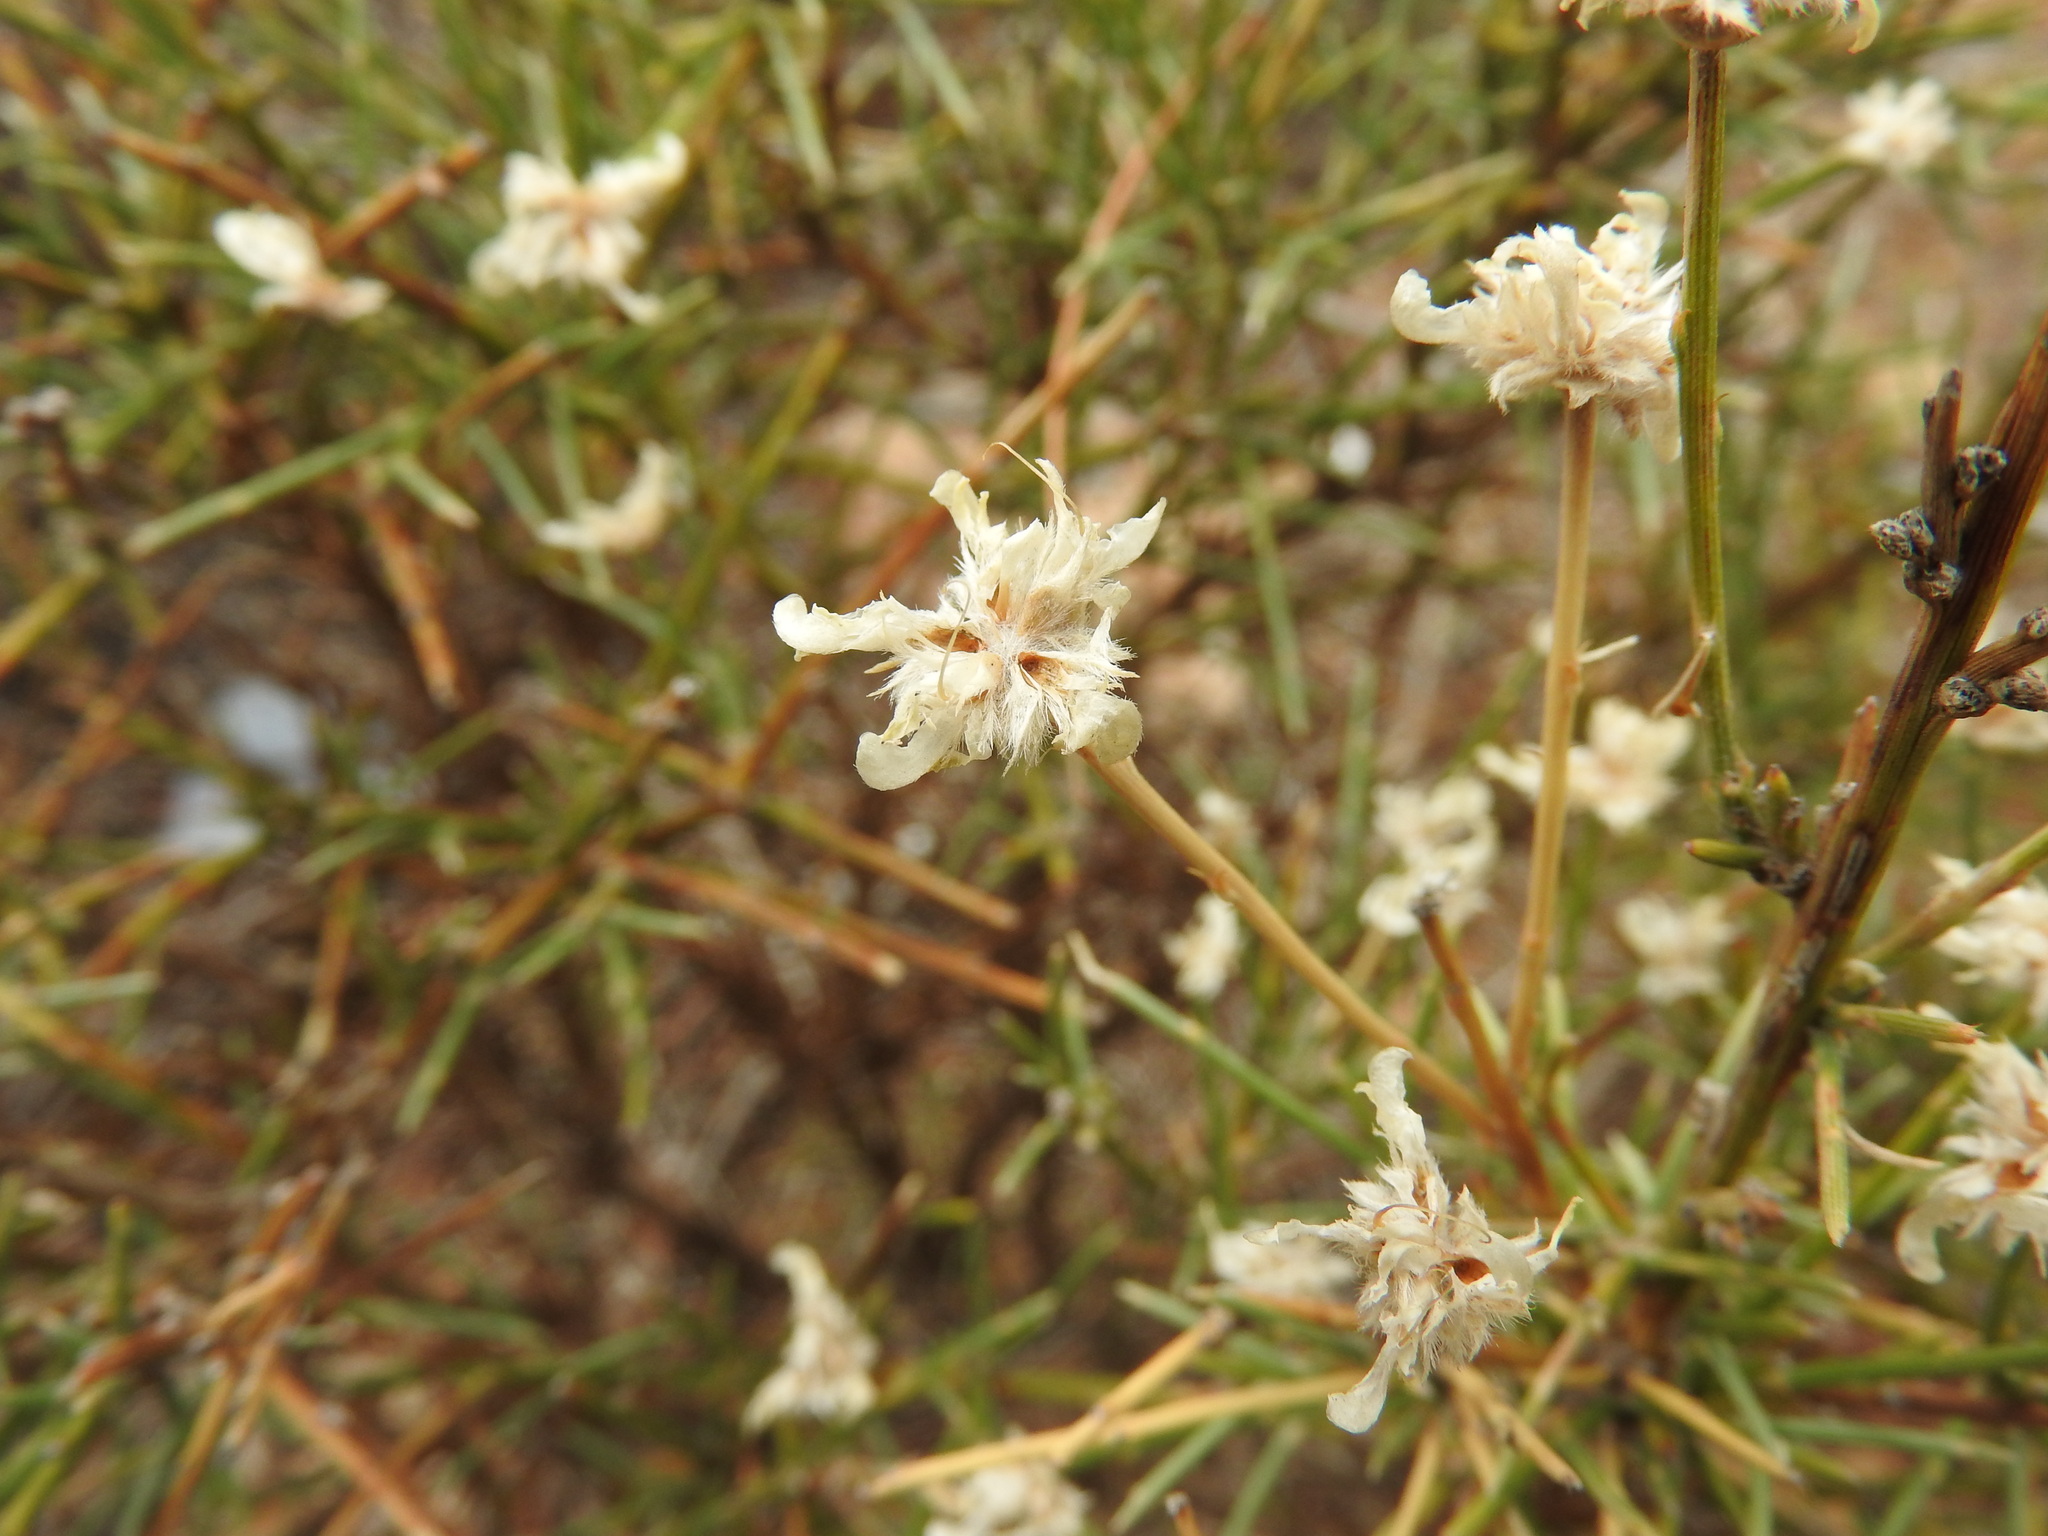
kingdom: Plantae
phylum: Tracheophyta
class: Magnoliopsida
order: Fabales
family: Fabaceae
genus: Genista
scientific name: Genista microcephala
